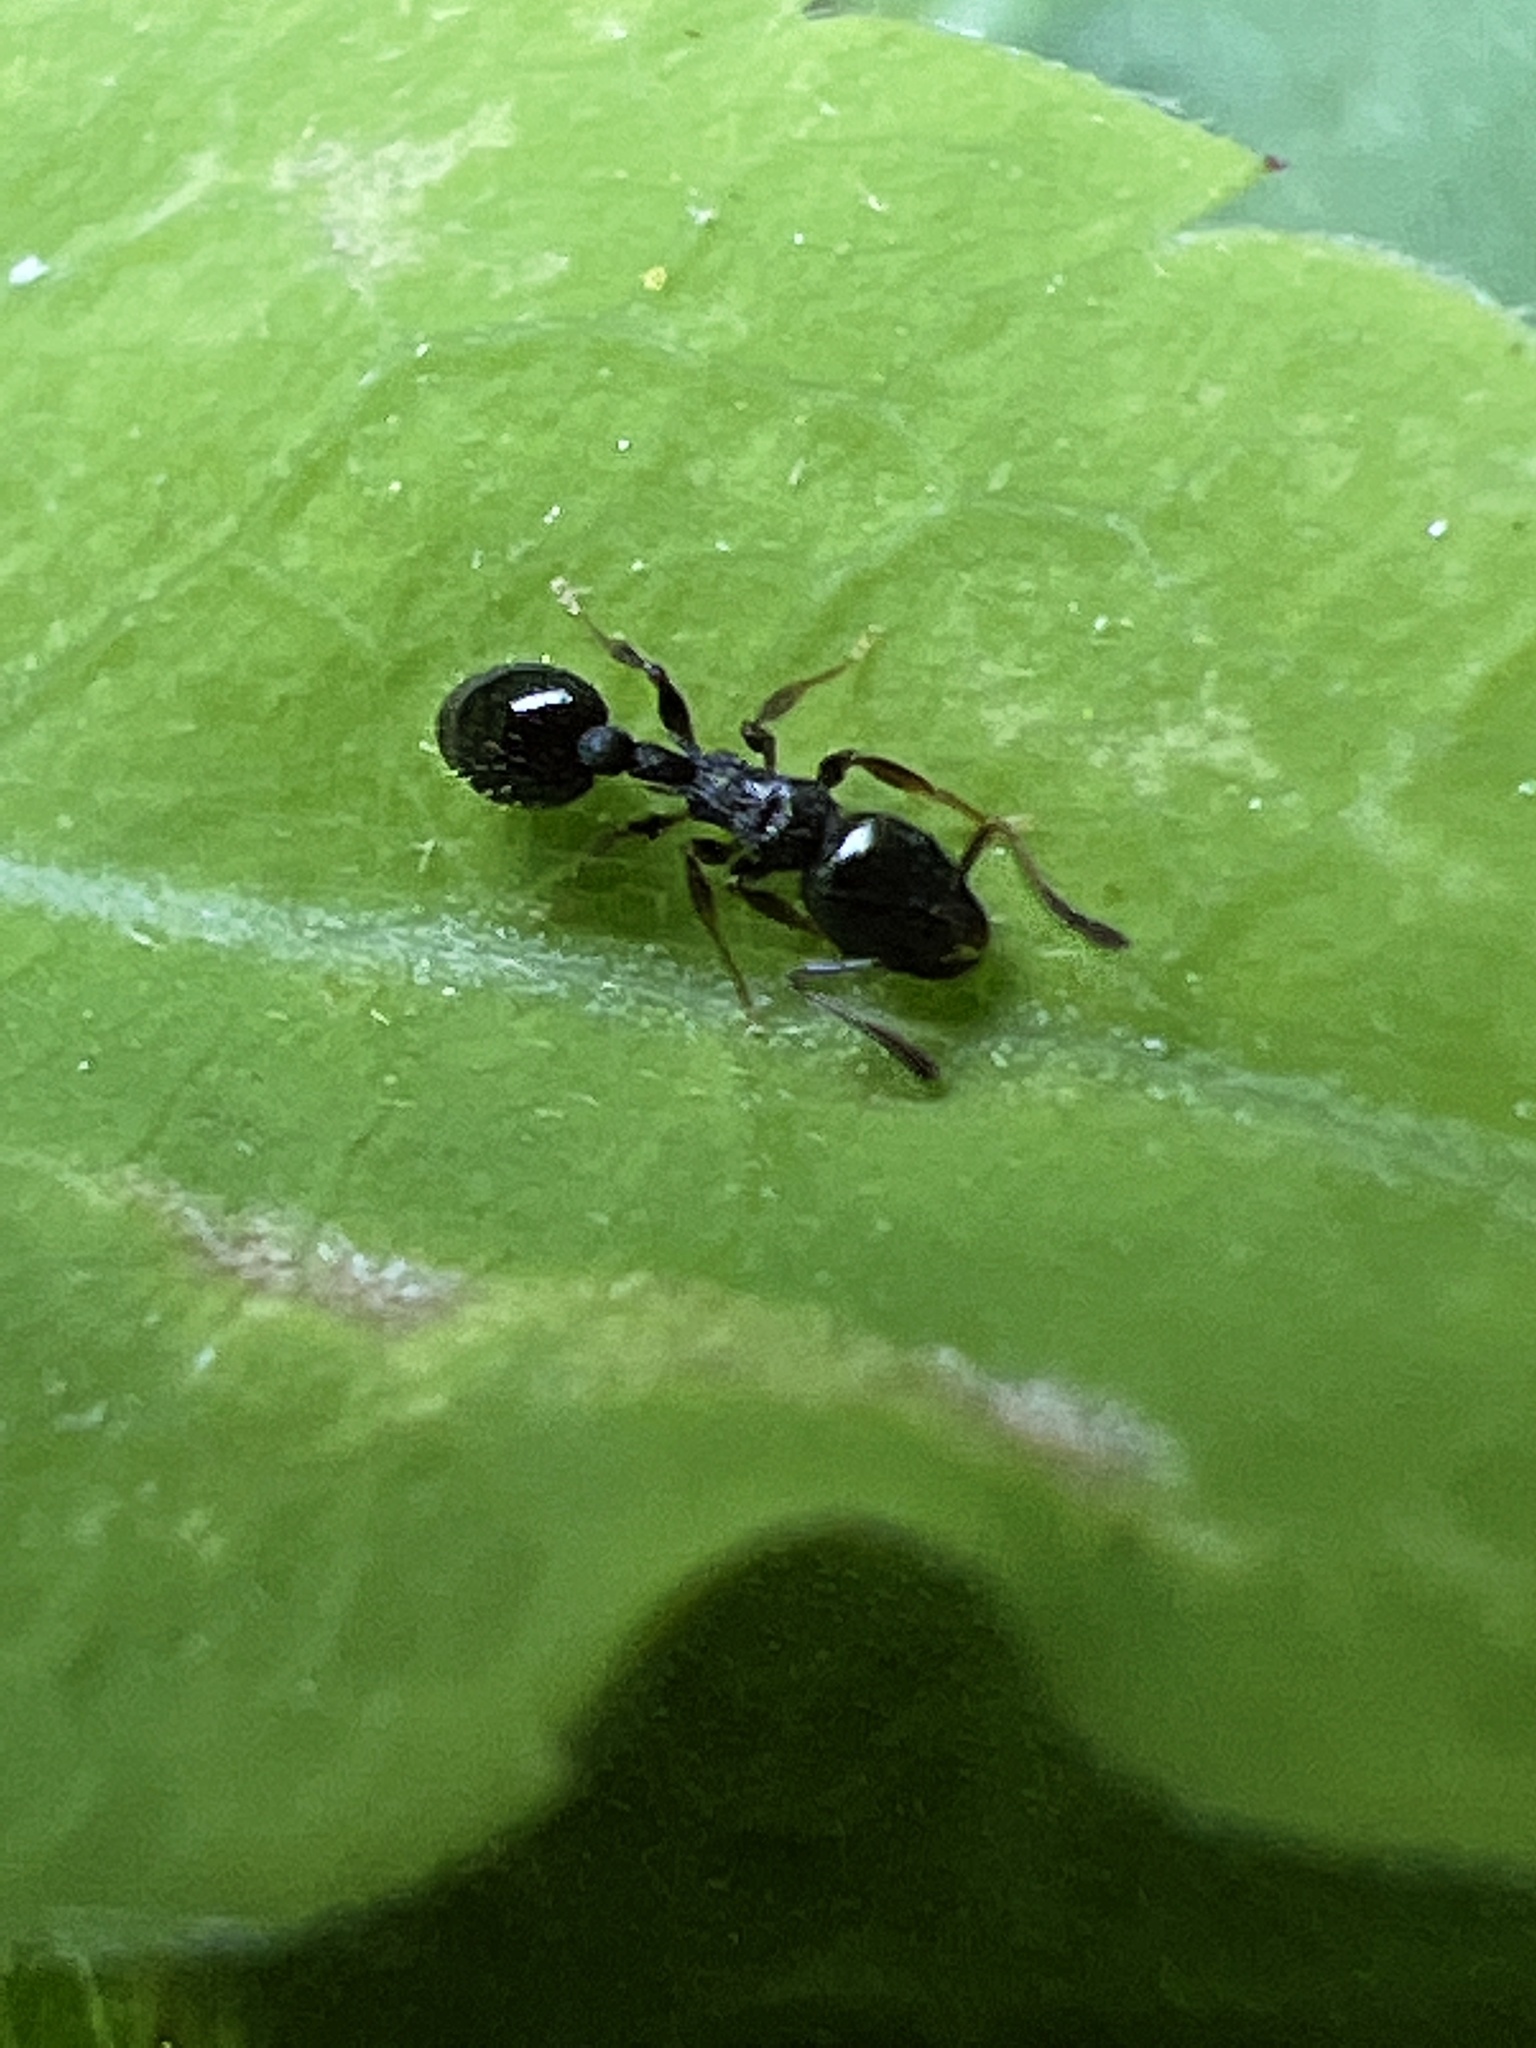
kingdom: Animalia
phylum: Arthropoda
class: Insecta
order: Hymenoptera
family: Formicidae
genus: Temnothorax
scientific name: Temnothorax longispinosus
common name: Long-spined acorn ant
